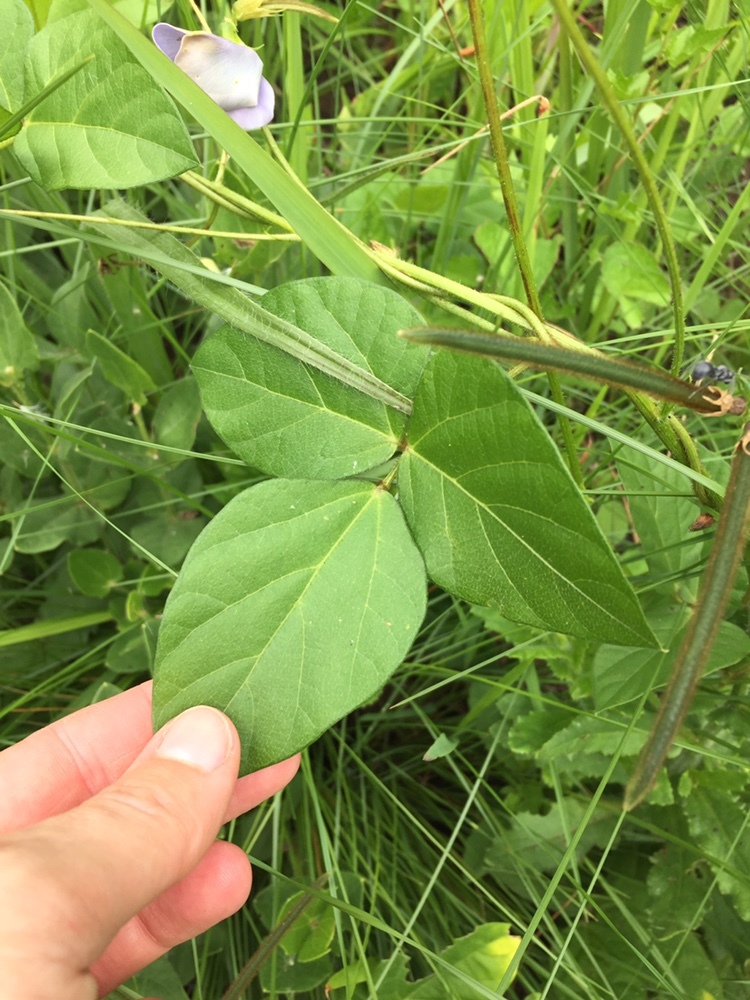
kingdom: Plantae
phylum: Tracheophyta
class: Magnoliopsida
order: Fabales
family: Fabaceae
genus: Vigna
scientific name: Vigna unguiculata
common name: Cowpea
